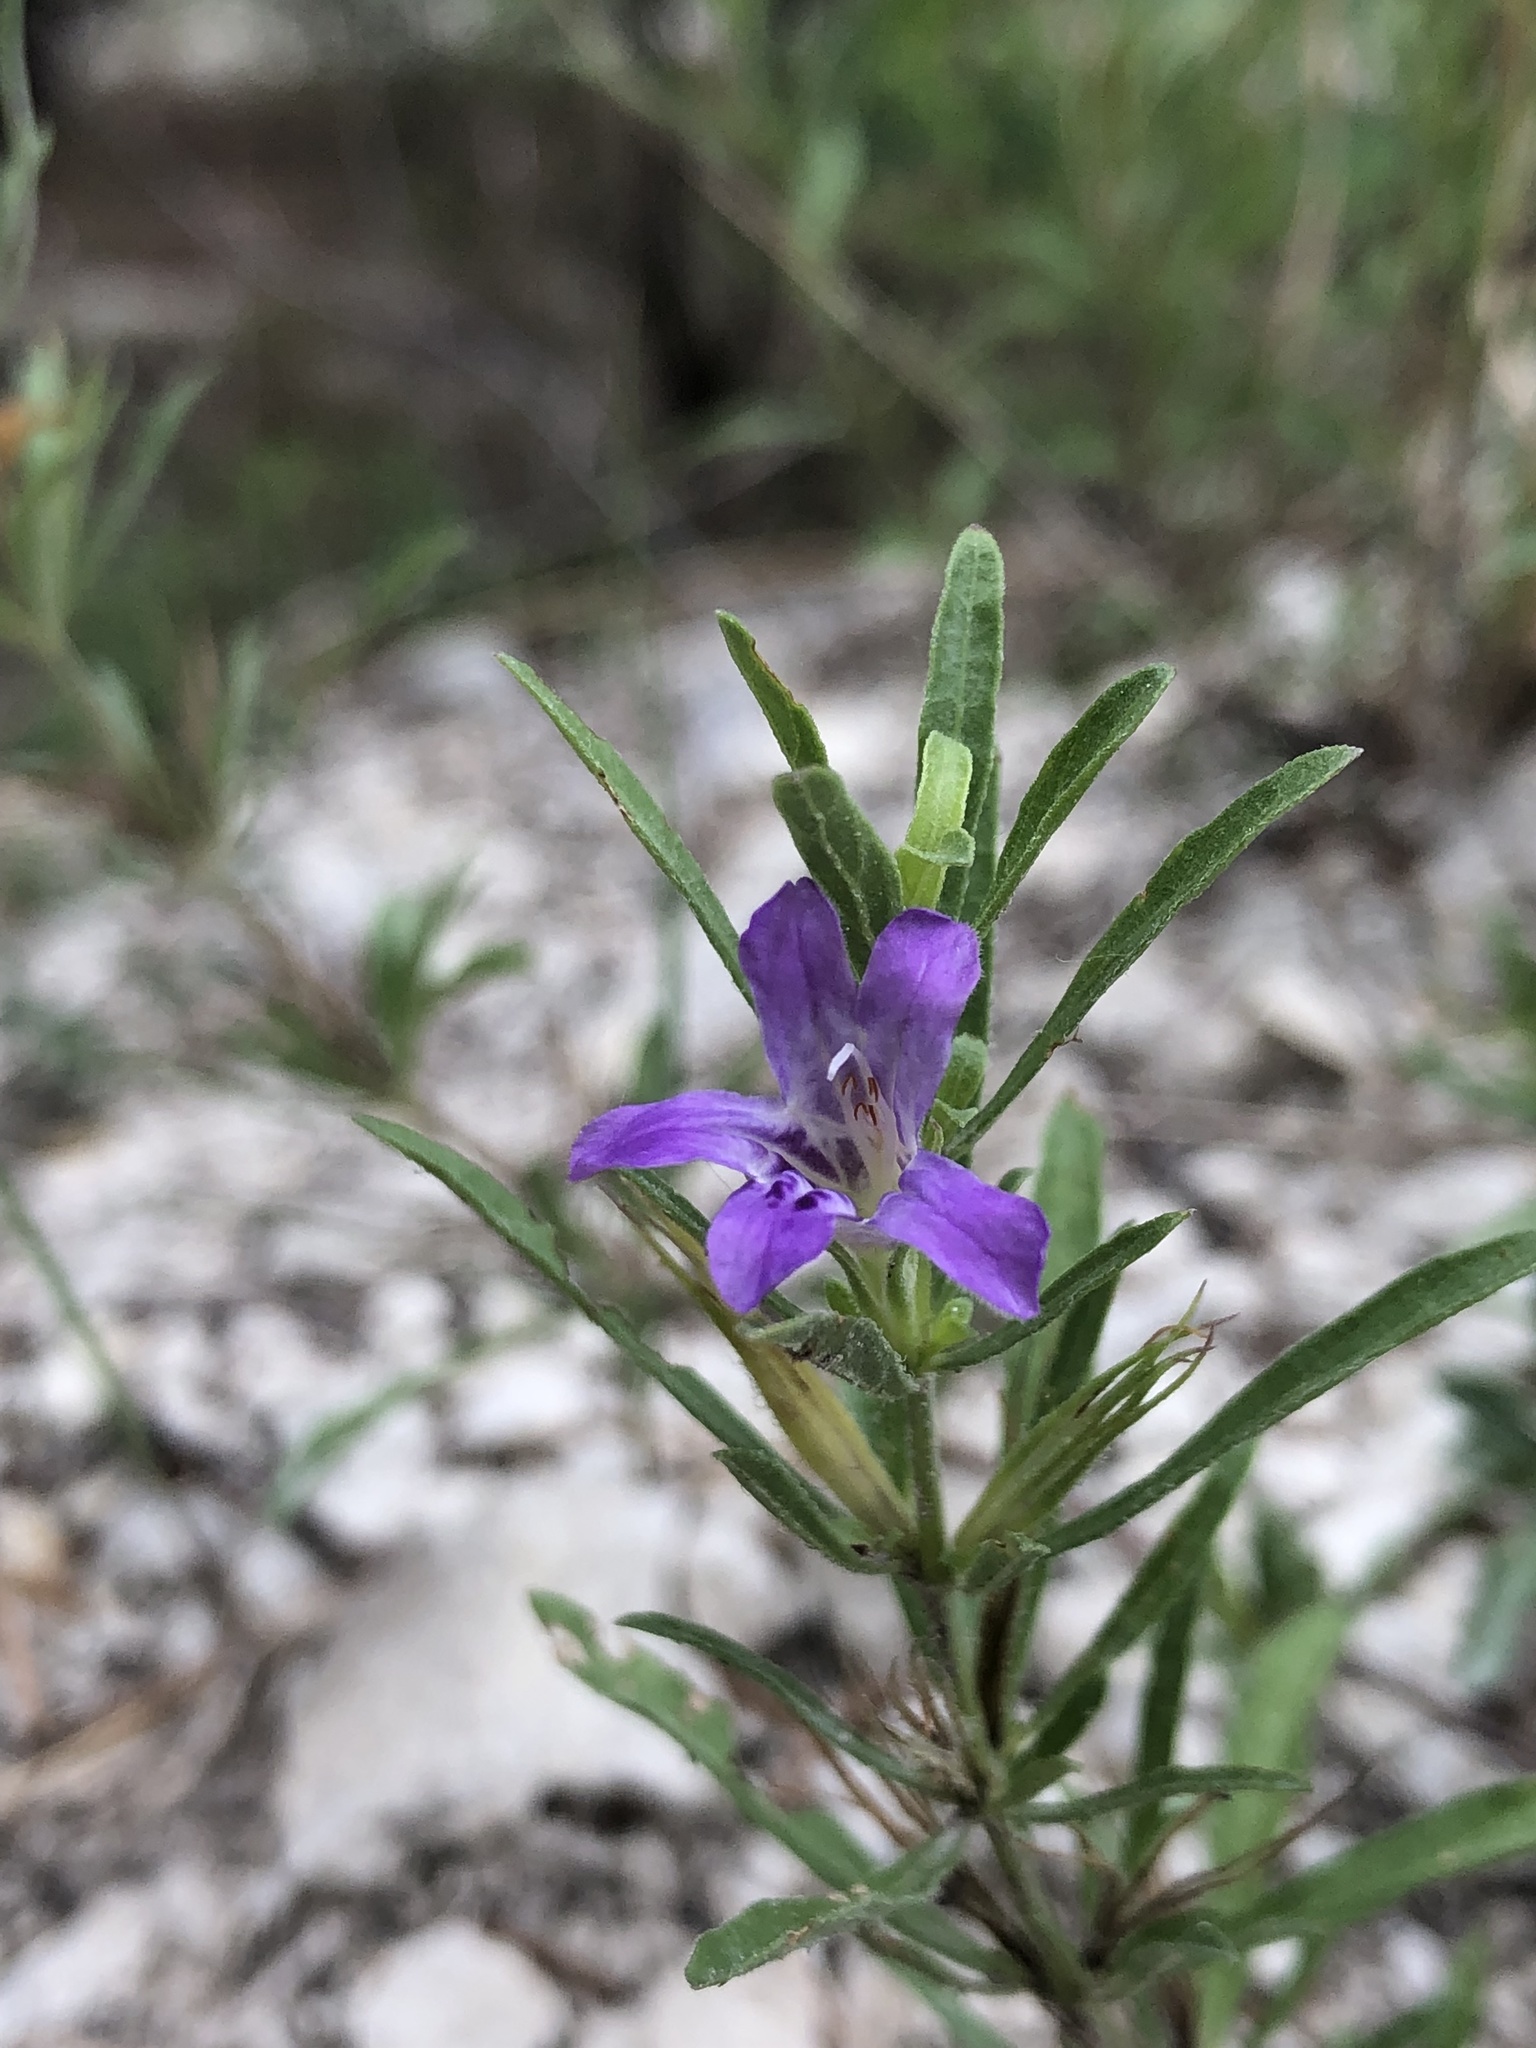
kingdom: Plantae
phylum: Tracheophyta
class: Magnoliopsida
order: Lamiales
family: Acanthaceae
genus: Dyschoriste
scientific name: Dyschoriste linearis
